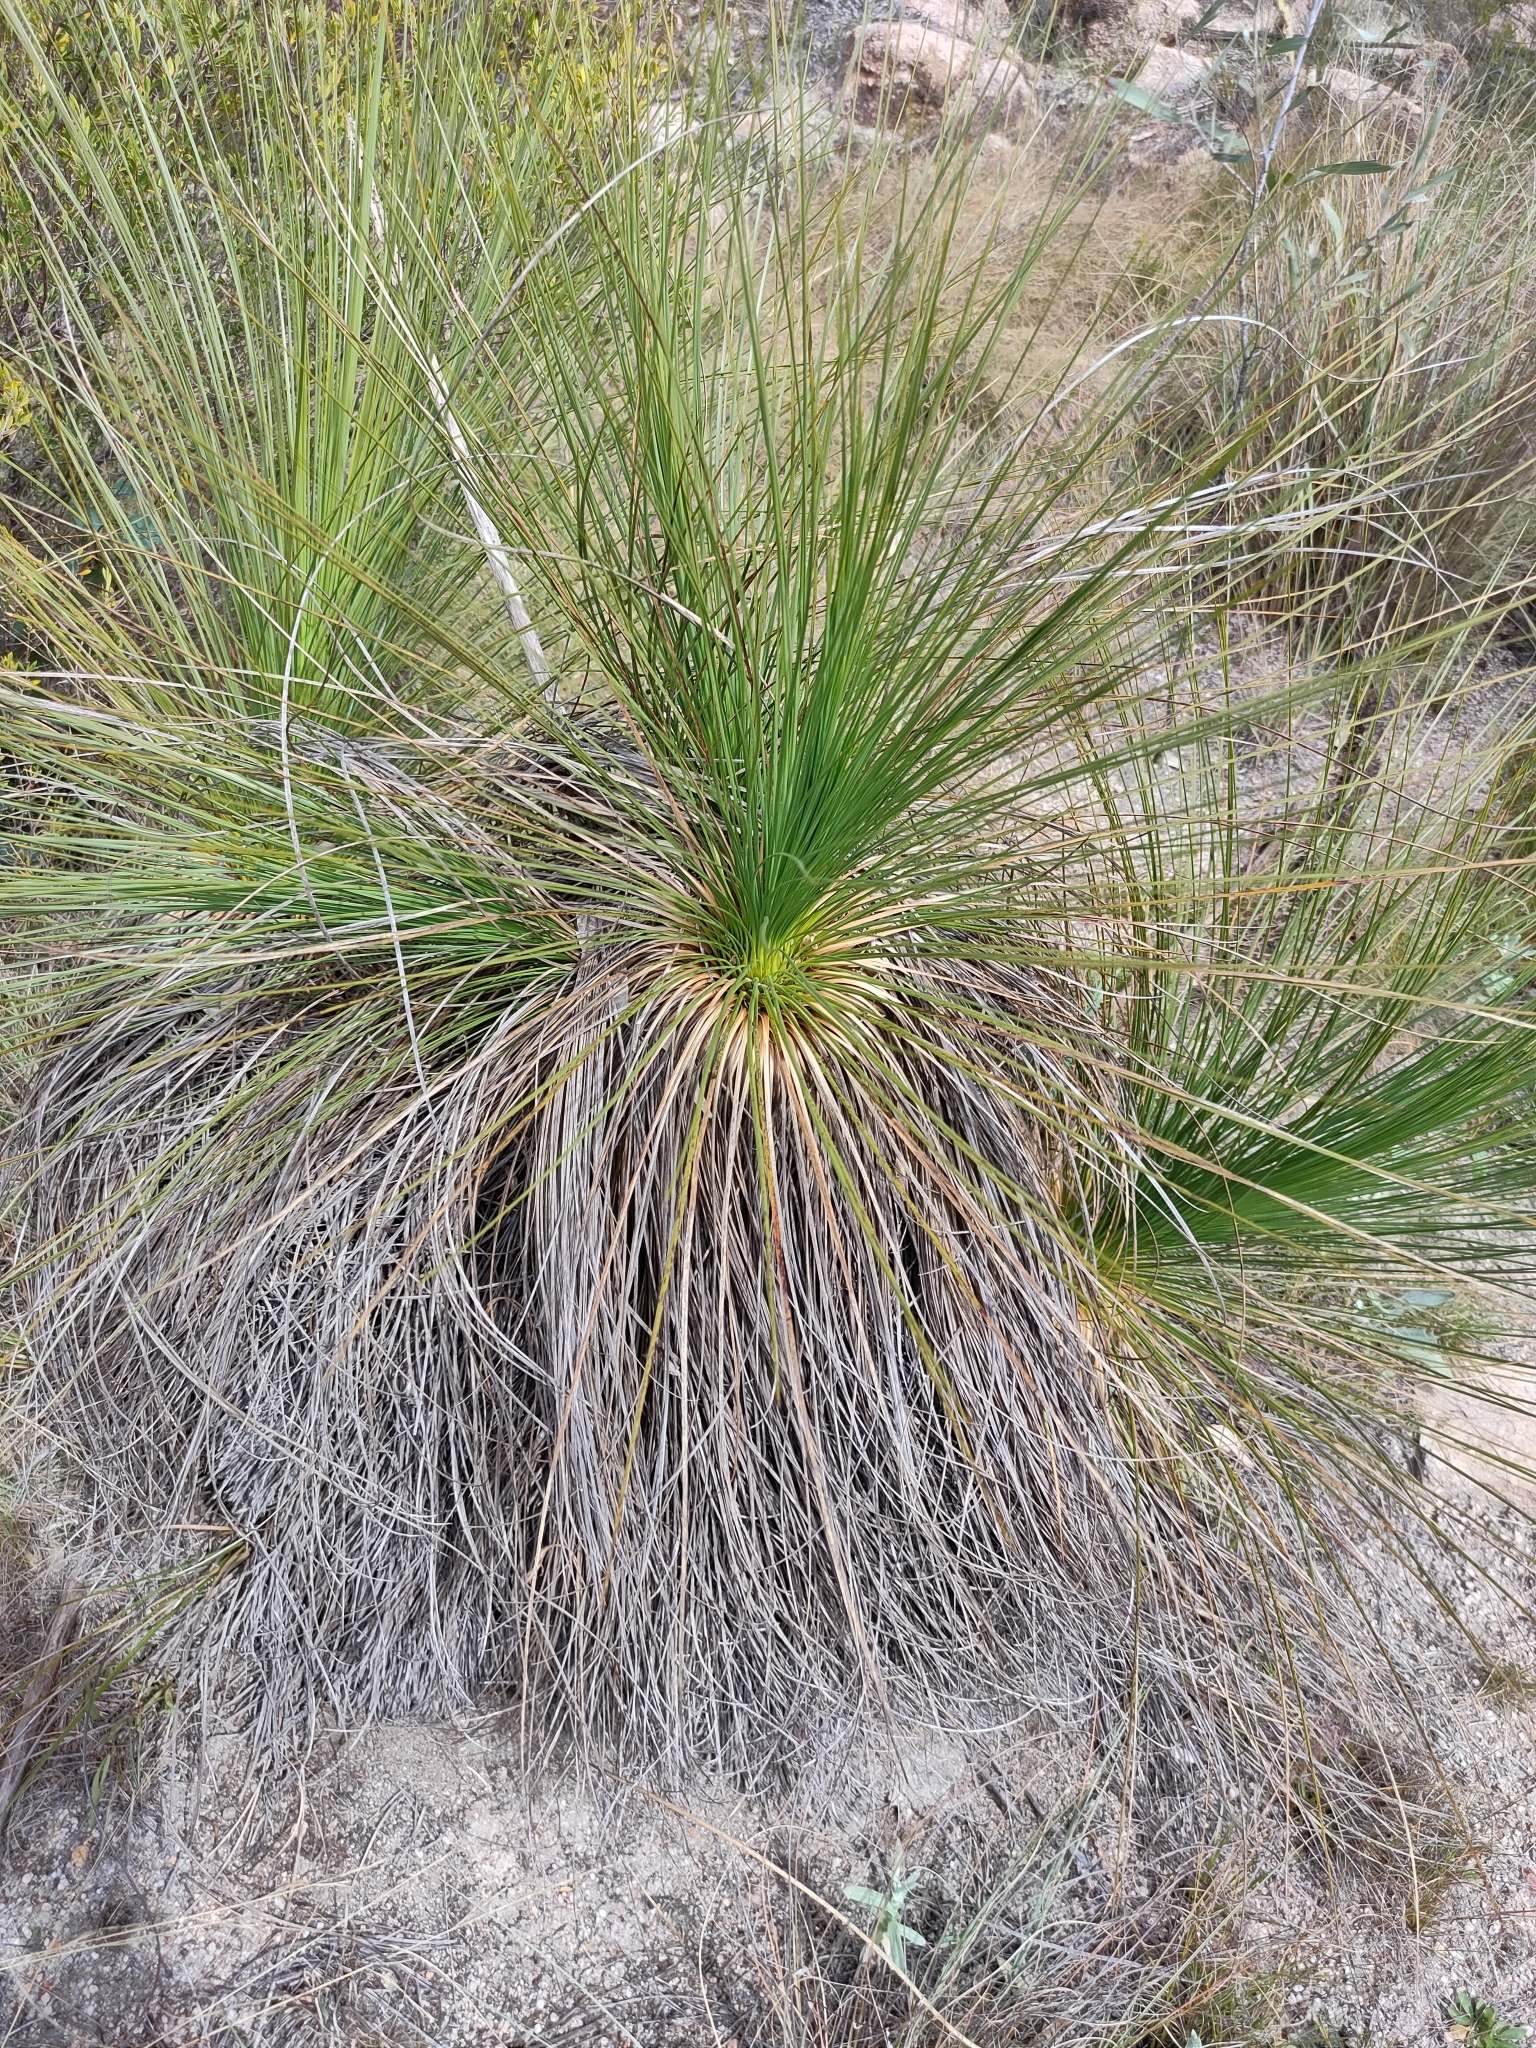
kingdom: Plantae
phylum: Tracheophyta
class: Liliopsida
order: Asparagales
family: Asphodelaceae
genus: Xanthorrhoea
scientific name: Xanthorrhoea johnsonii
